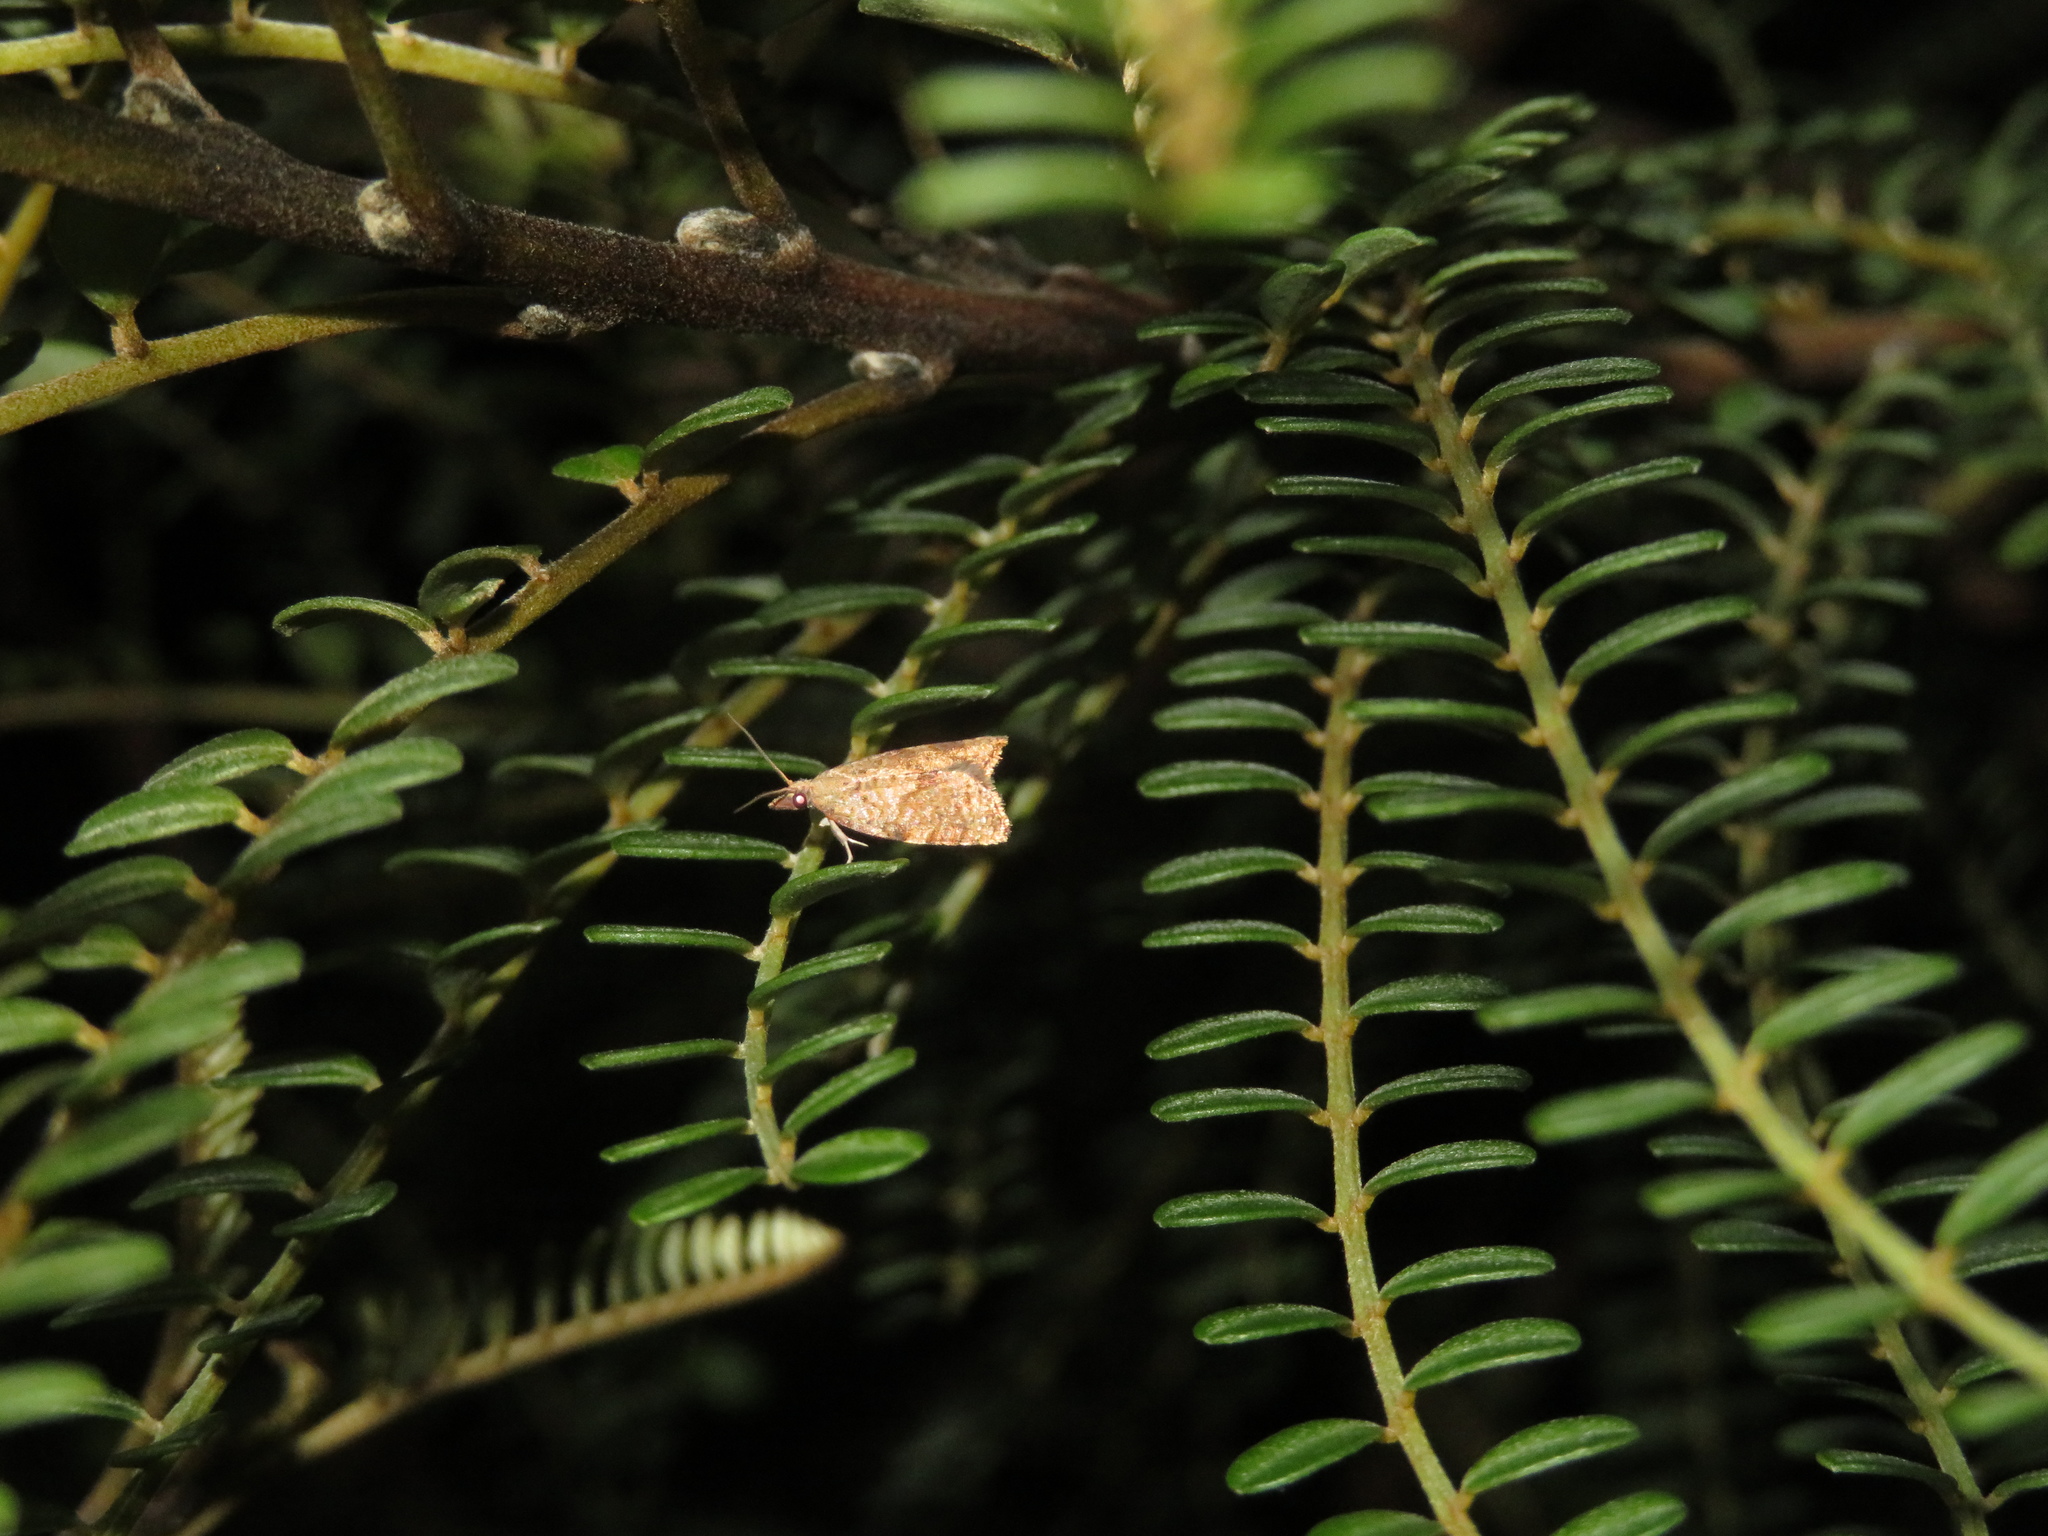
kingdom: Animalia
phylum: Arthropoda
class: Insecta
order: Lepidoptera
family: Tortricidae
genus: Catamacta
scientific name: Catamacta gavisana
